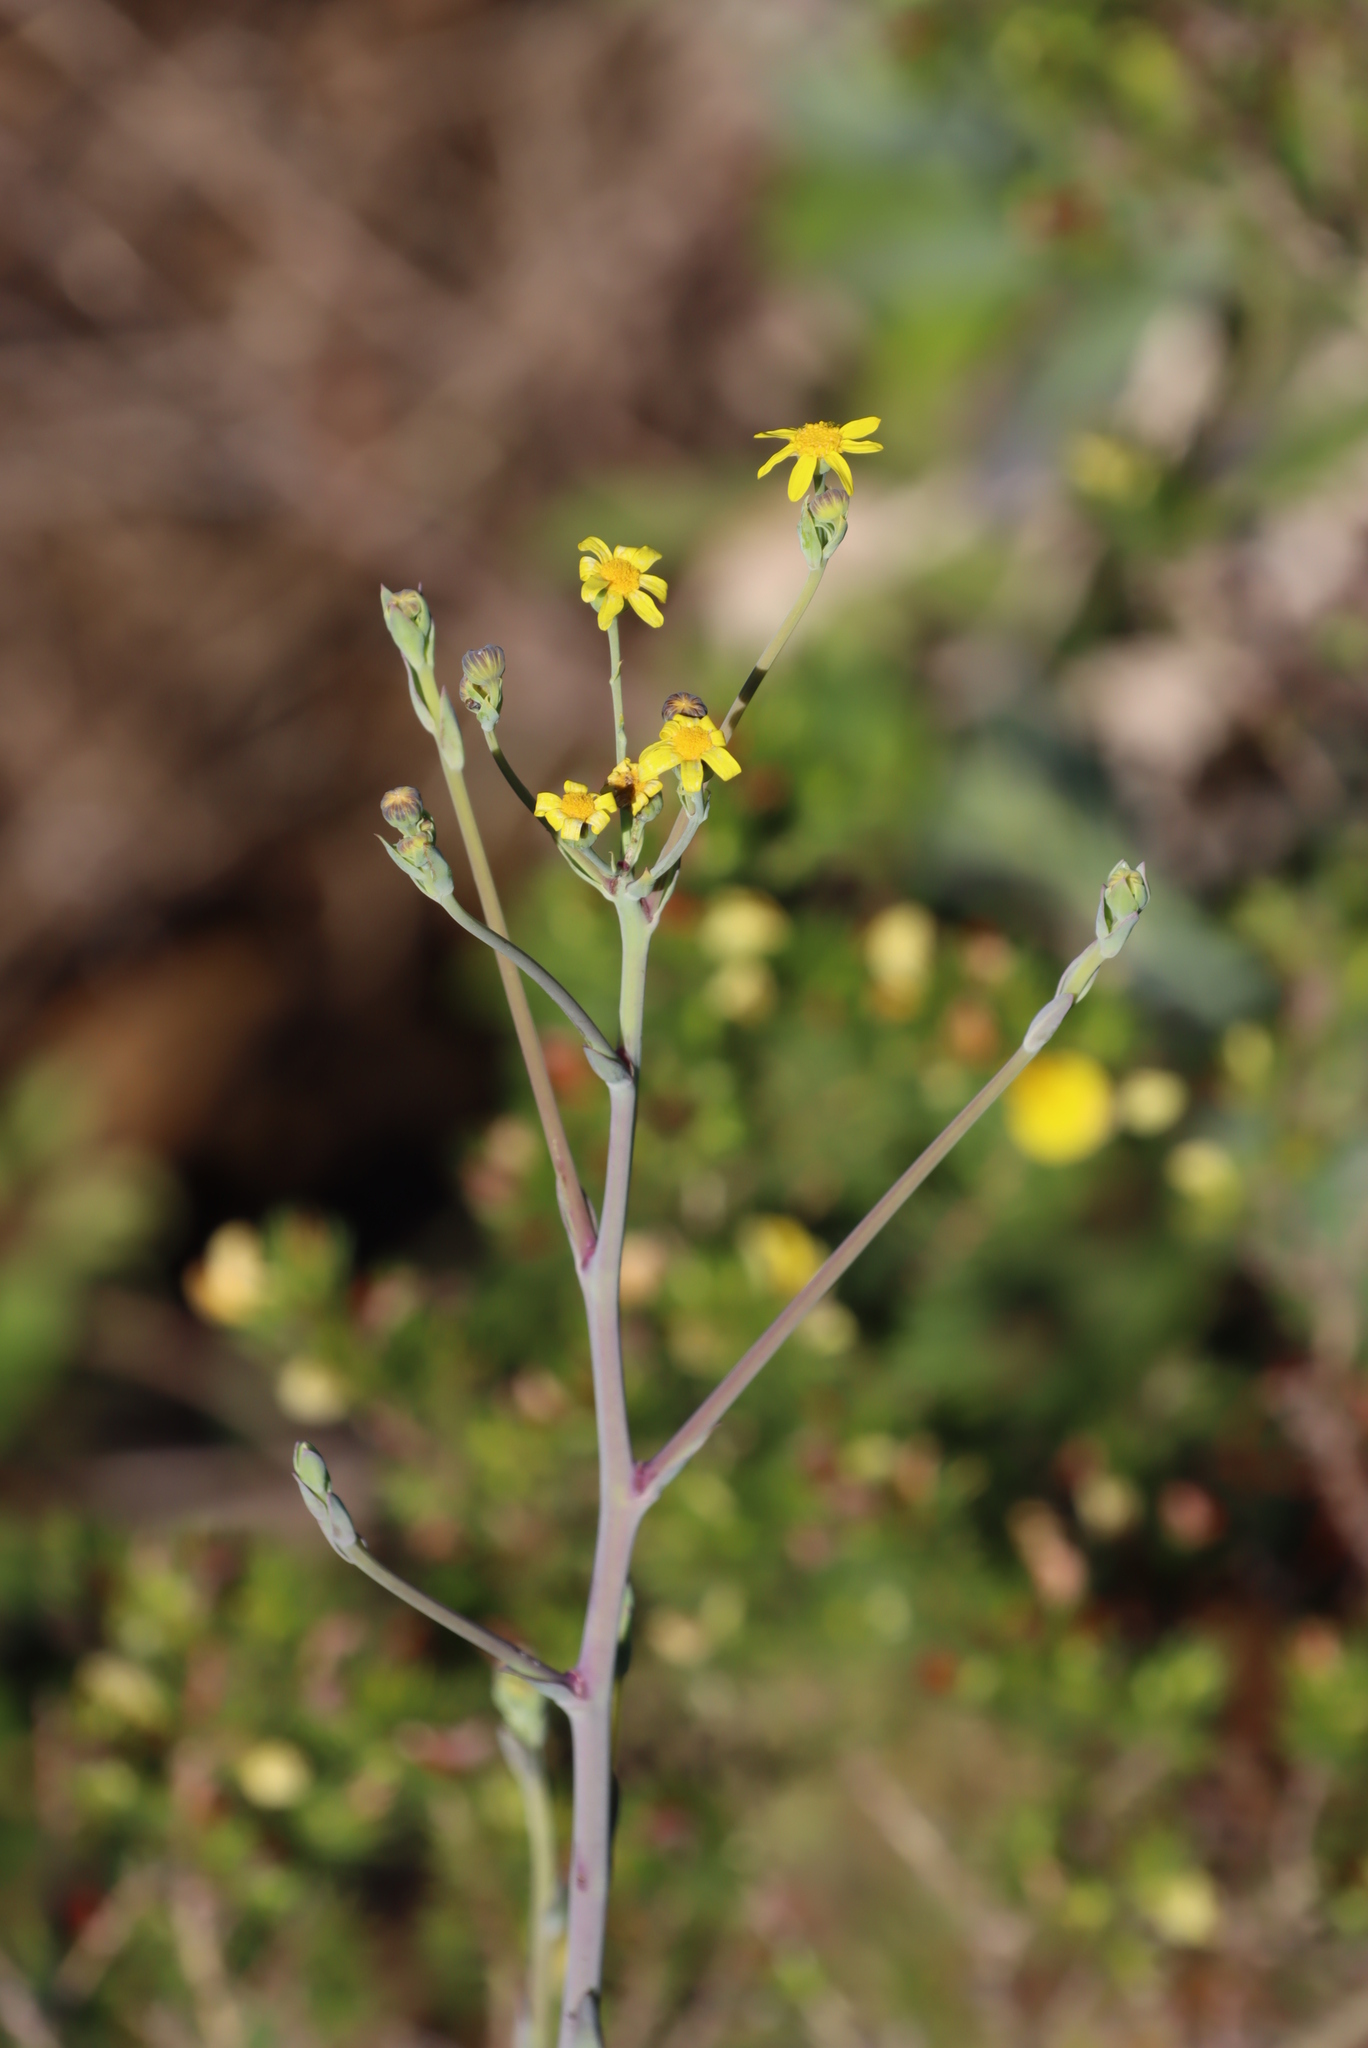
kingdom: Plantae
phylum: Tracheophyta
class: Magnoliopsida
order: Asterales
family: Asteraceae
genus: Othonna
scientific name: Othonna quinquedentata
